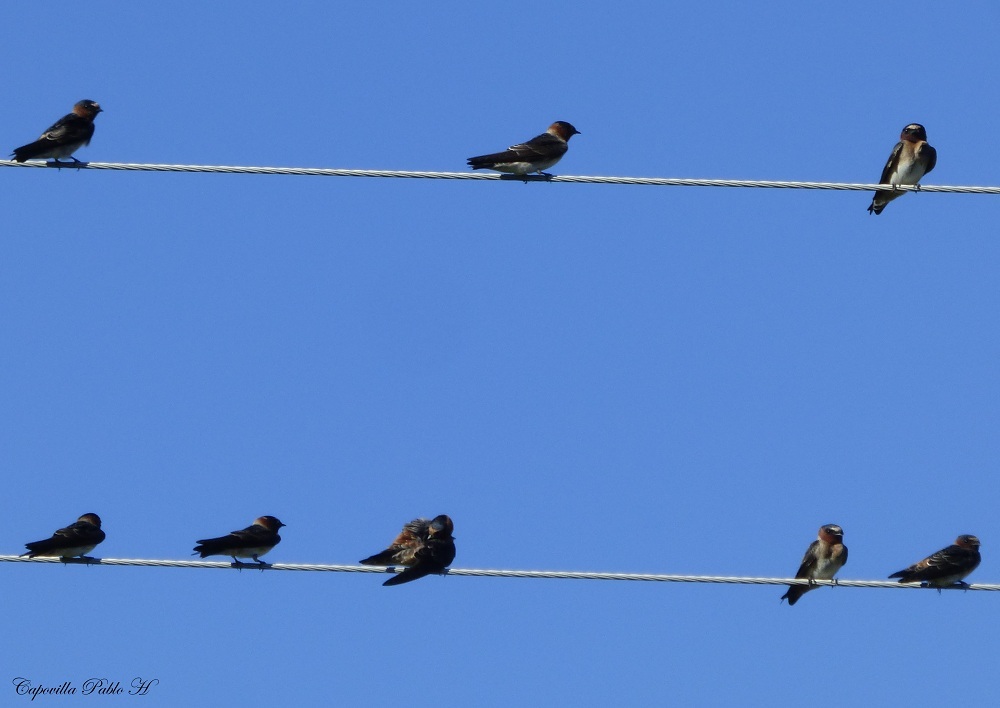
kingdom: Animalia
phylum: Chordata
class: Aves
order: Passeriformes
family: Hirundinidae
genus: Petrochelidon
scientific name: Petrochelidon pyrrhonota
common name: American cliff swallow
